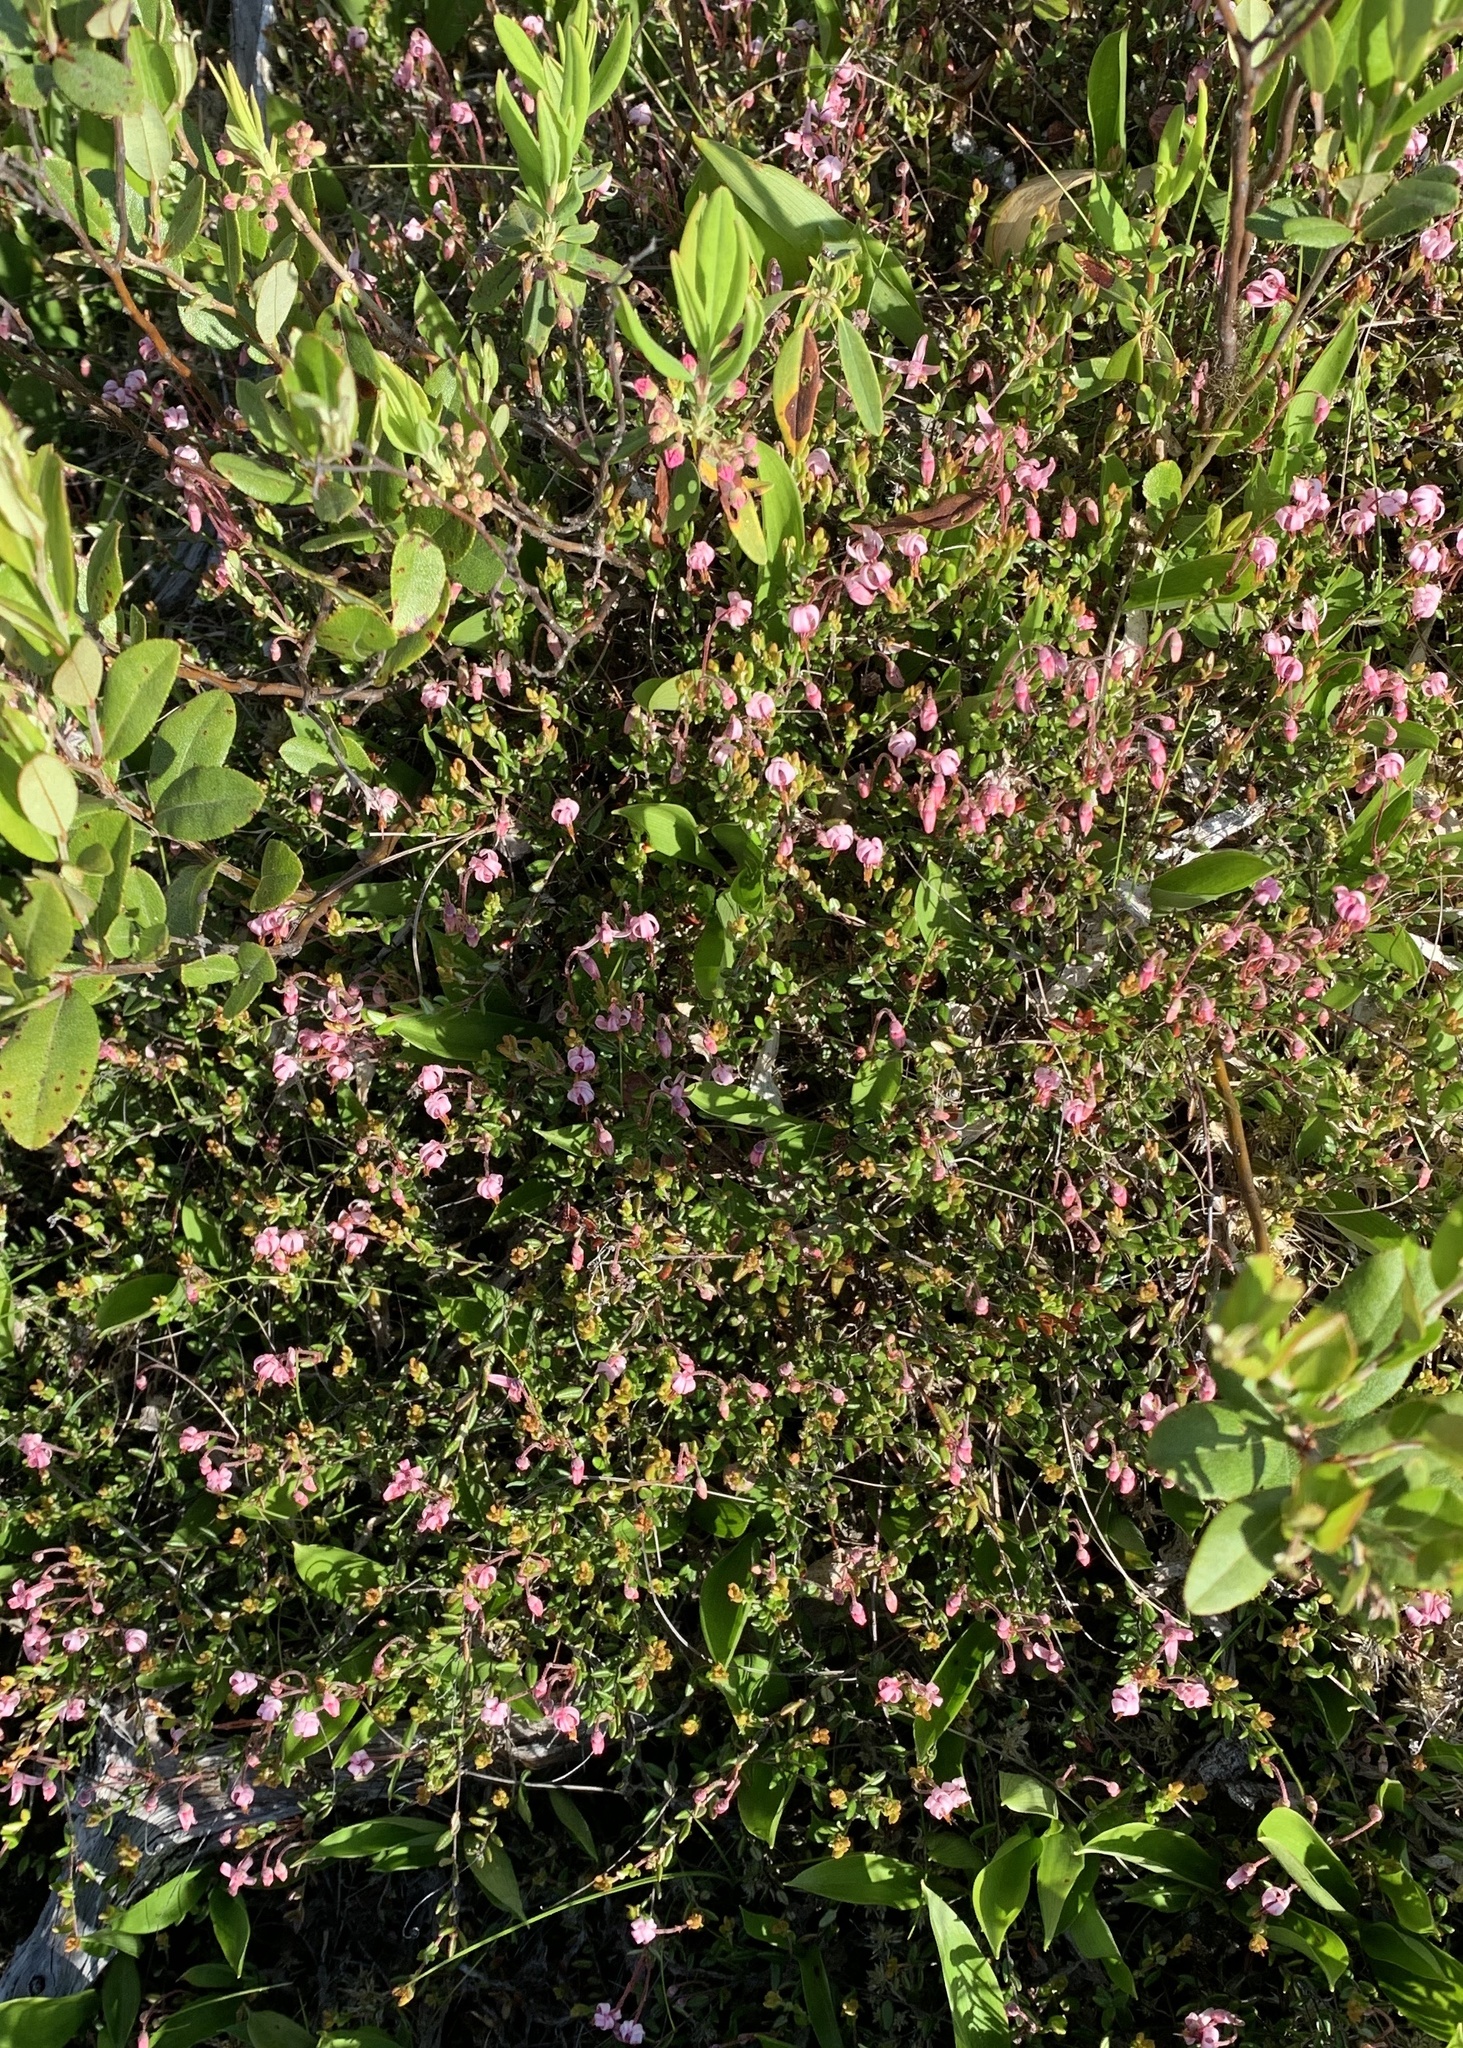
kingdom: Plantae
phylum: Tracheophyta
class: Magnoliopsida
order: Ericales
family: Ericaceae
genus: Vaccinium
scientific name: Vaccinium oxycoccos
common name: Cranberry
